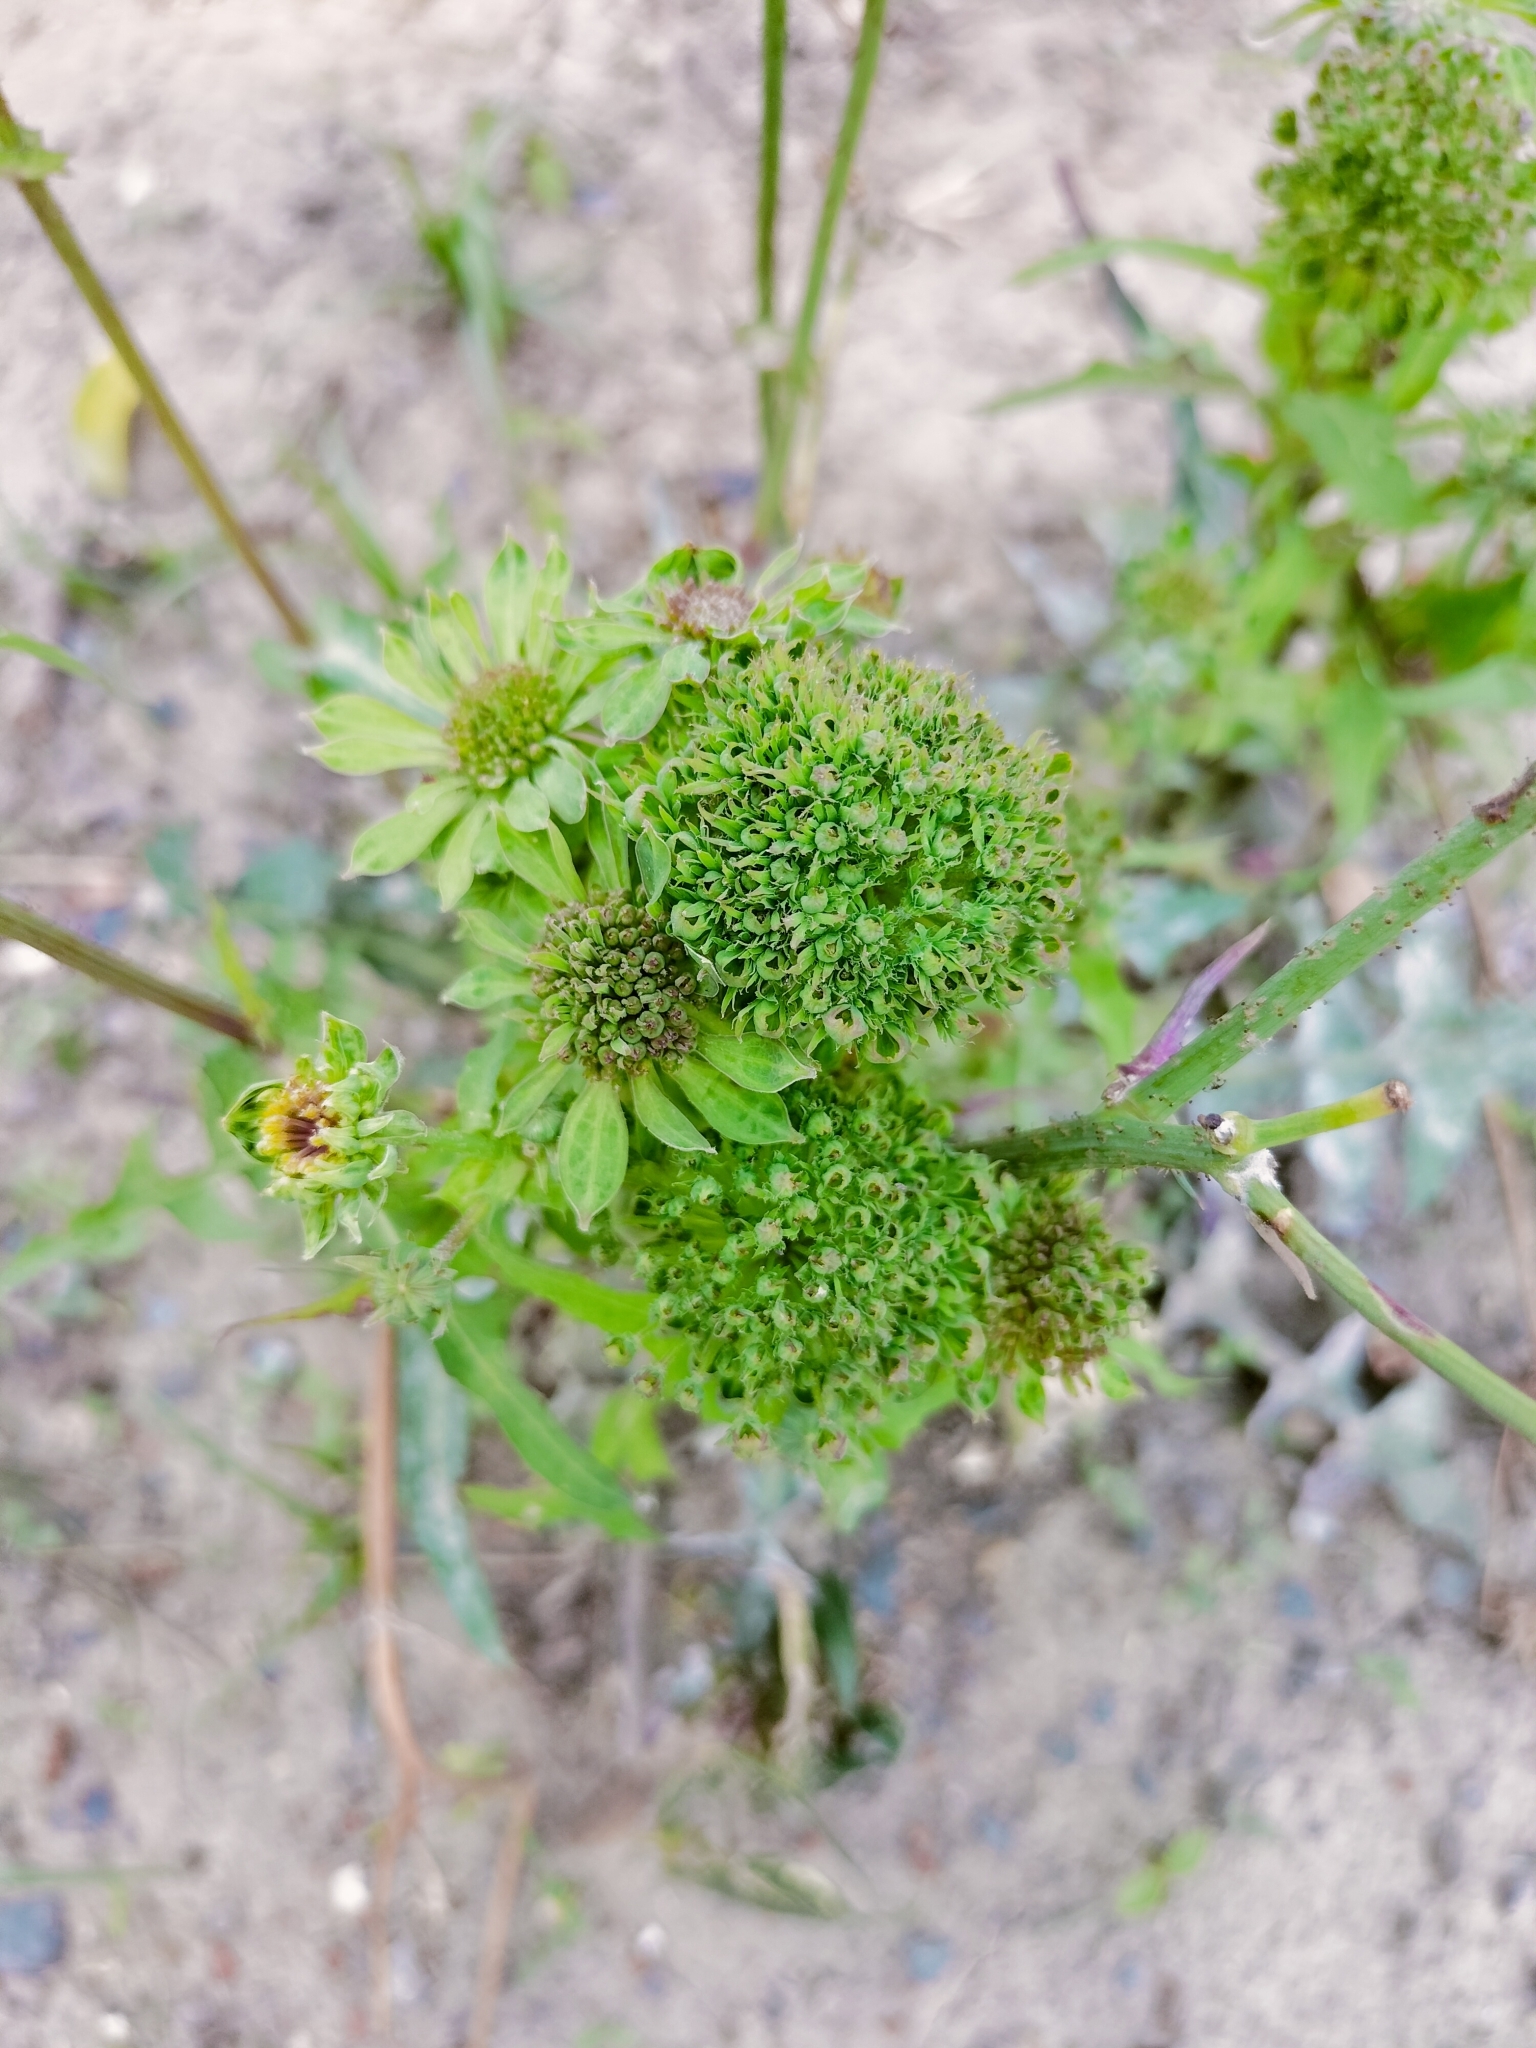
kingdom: Plantae
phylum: Tracheophyta
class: Magnoliopsida
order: Asterales
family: Asteraceae
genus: Sonchus
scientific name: Sonchus oleraceus
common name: Common sowthistle
